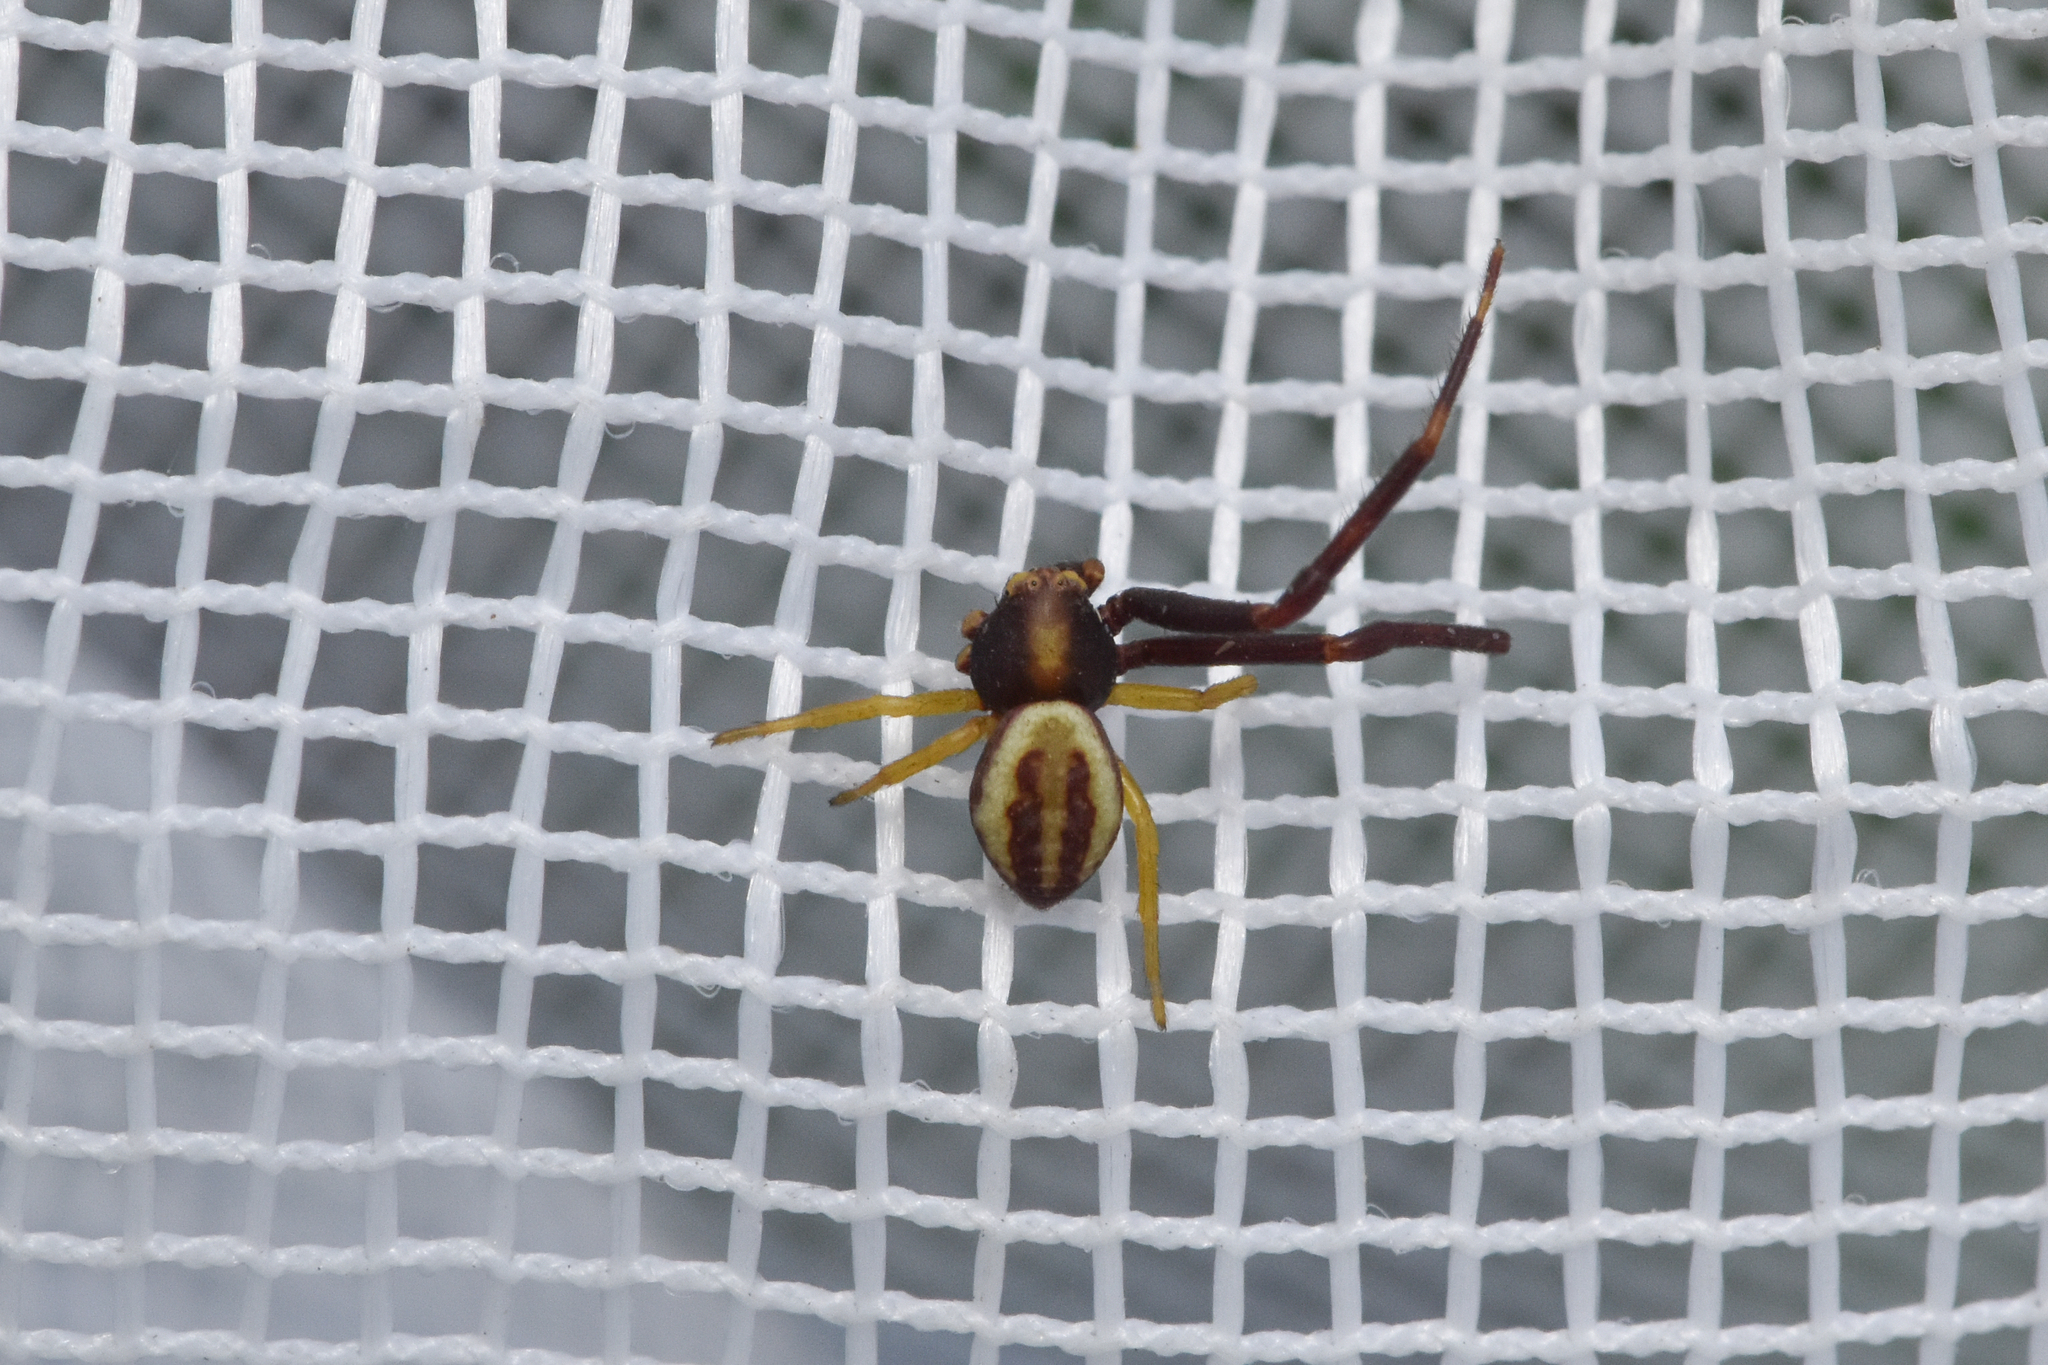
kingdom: Animalia
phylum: Arthropoda
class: Arachnida
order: Araneae
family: Thomisidae
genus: Misumena
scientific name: Misumena vatia
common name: Goldenrod crab spider
